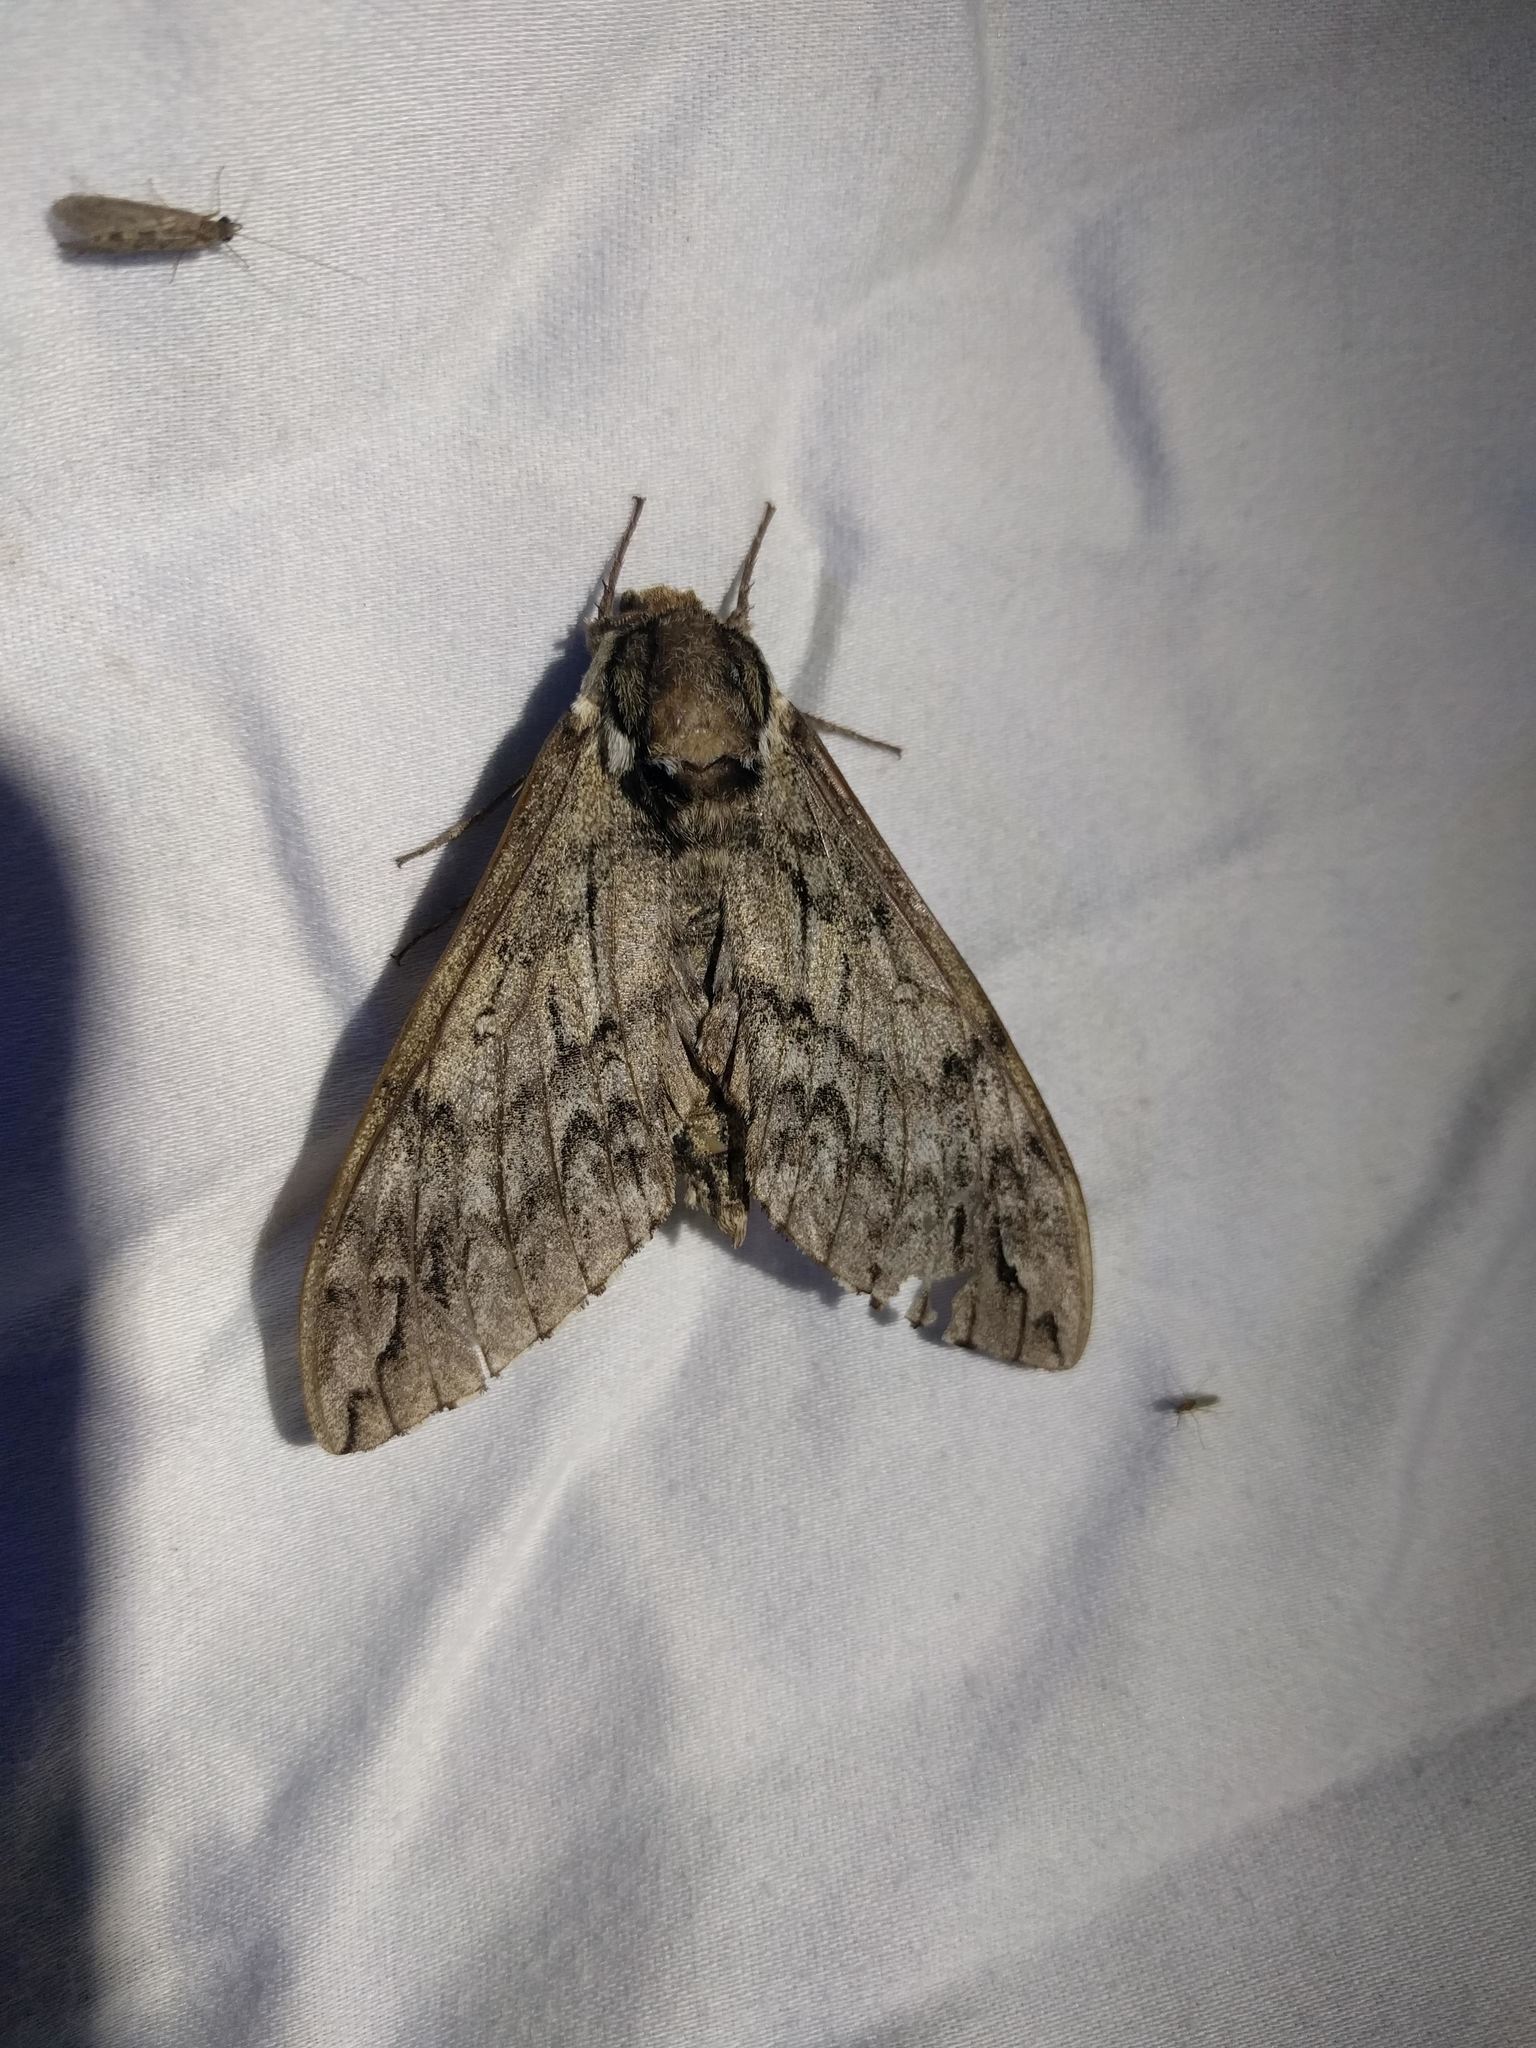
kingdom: Animalia
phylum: Arthropoda
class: Insecta
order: Lepidoptera
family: Sphingidae
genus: Ceratomia
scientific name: Ceratomia undulosa
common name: Waved sphinx
